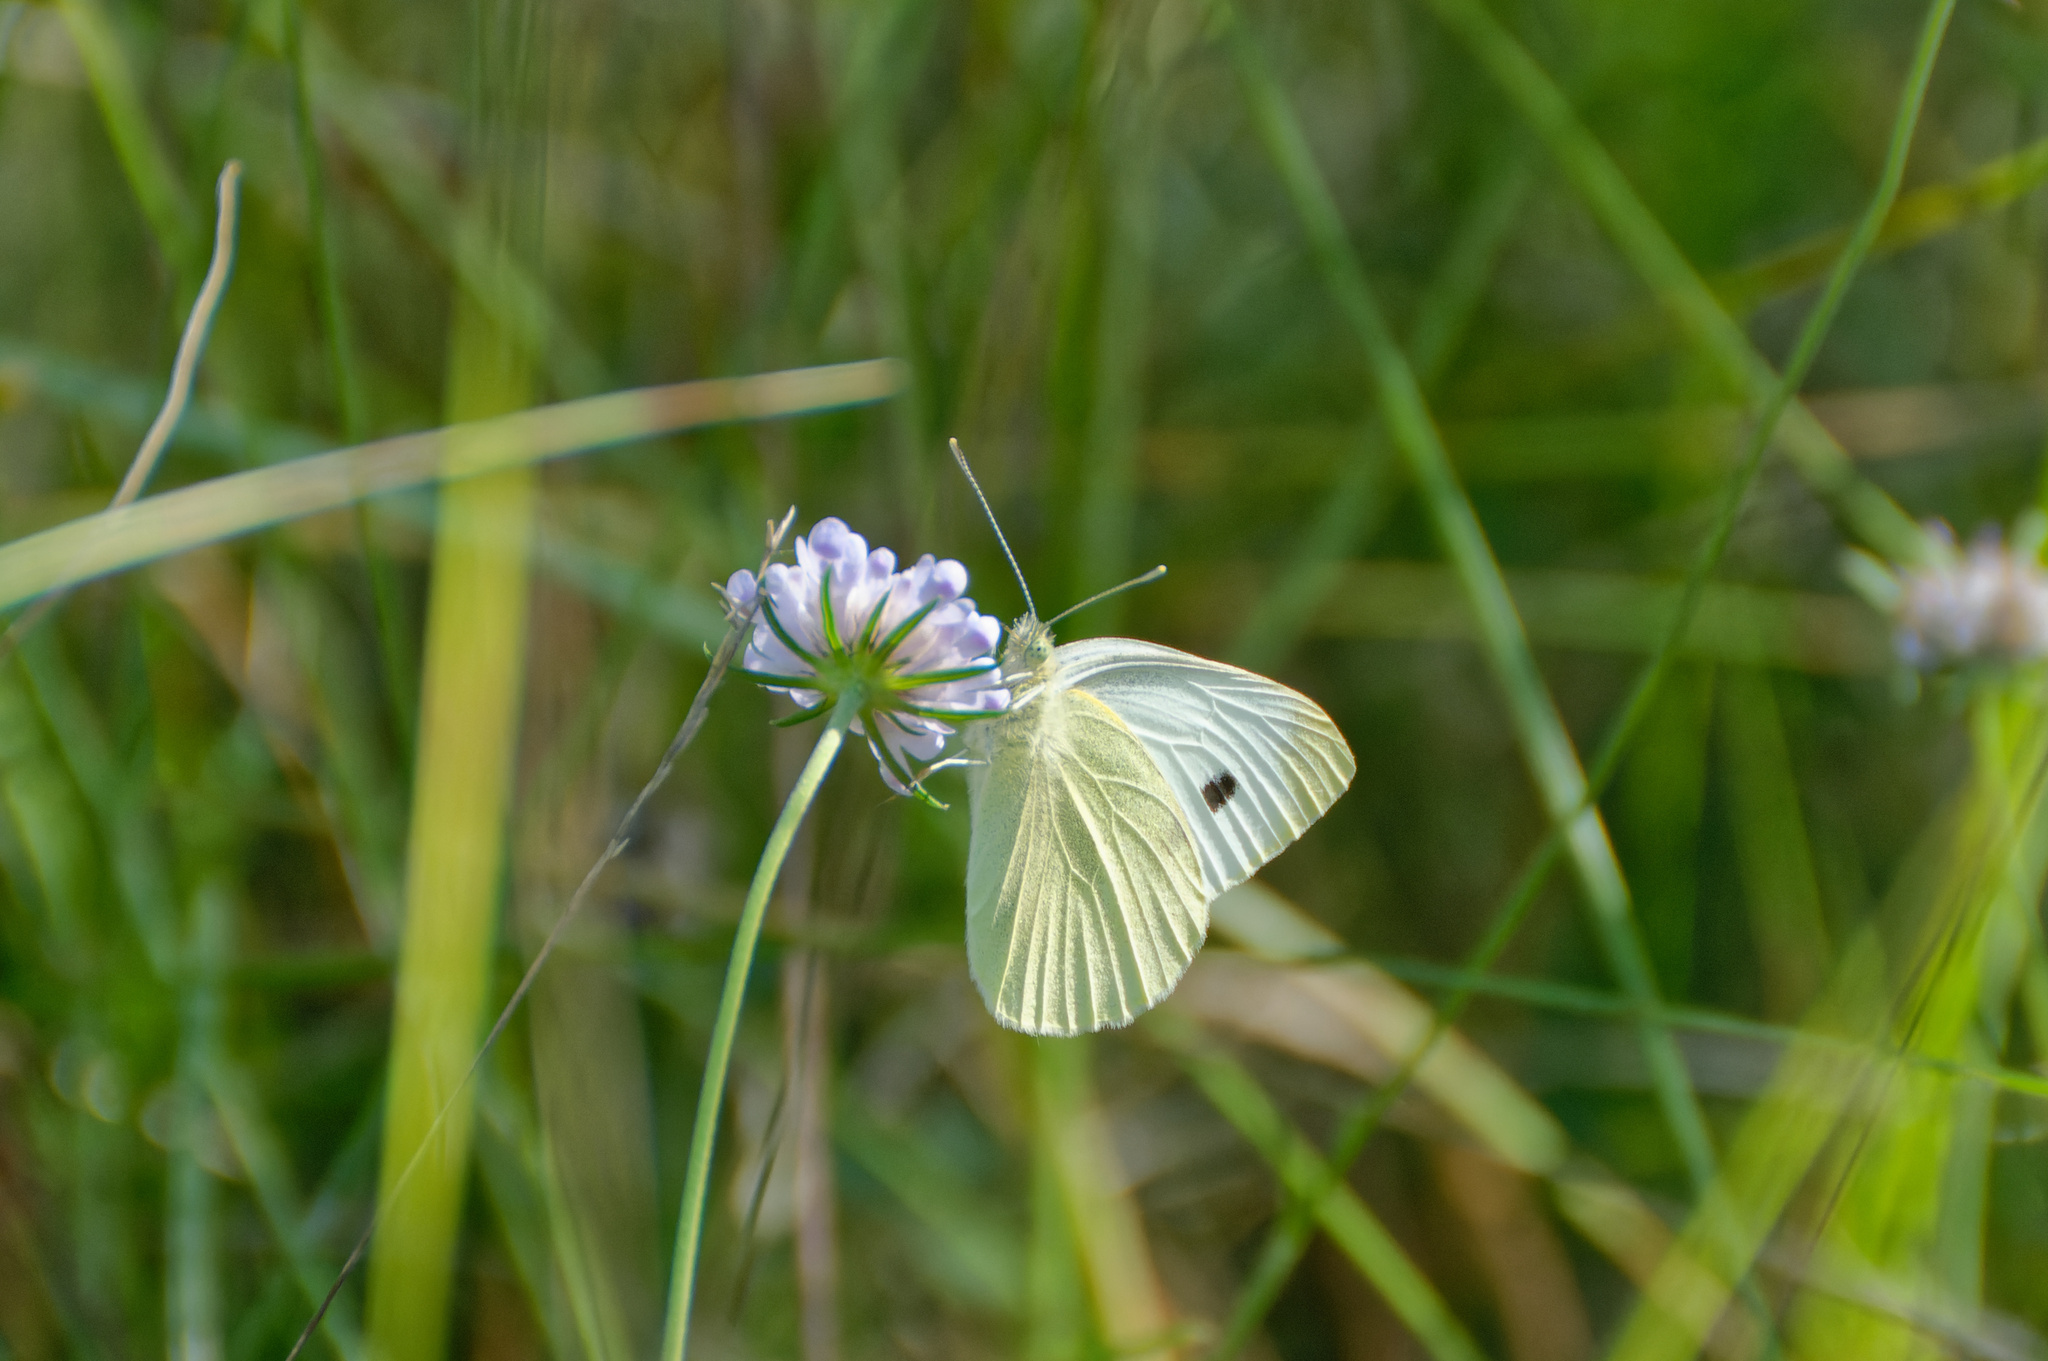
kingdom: Animalia
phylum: Arthropoda
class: Insecta
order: Lepidoptera
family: Pieridae
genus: Pieris
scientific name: Pieris rapae
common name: Small white
